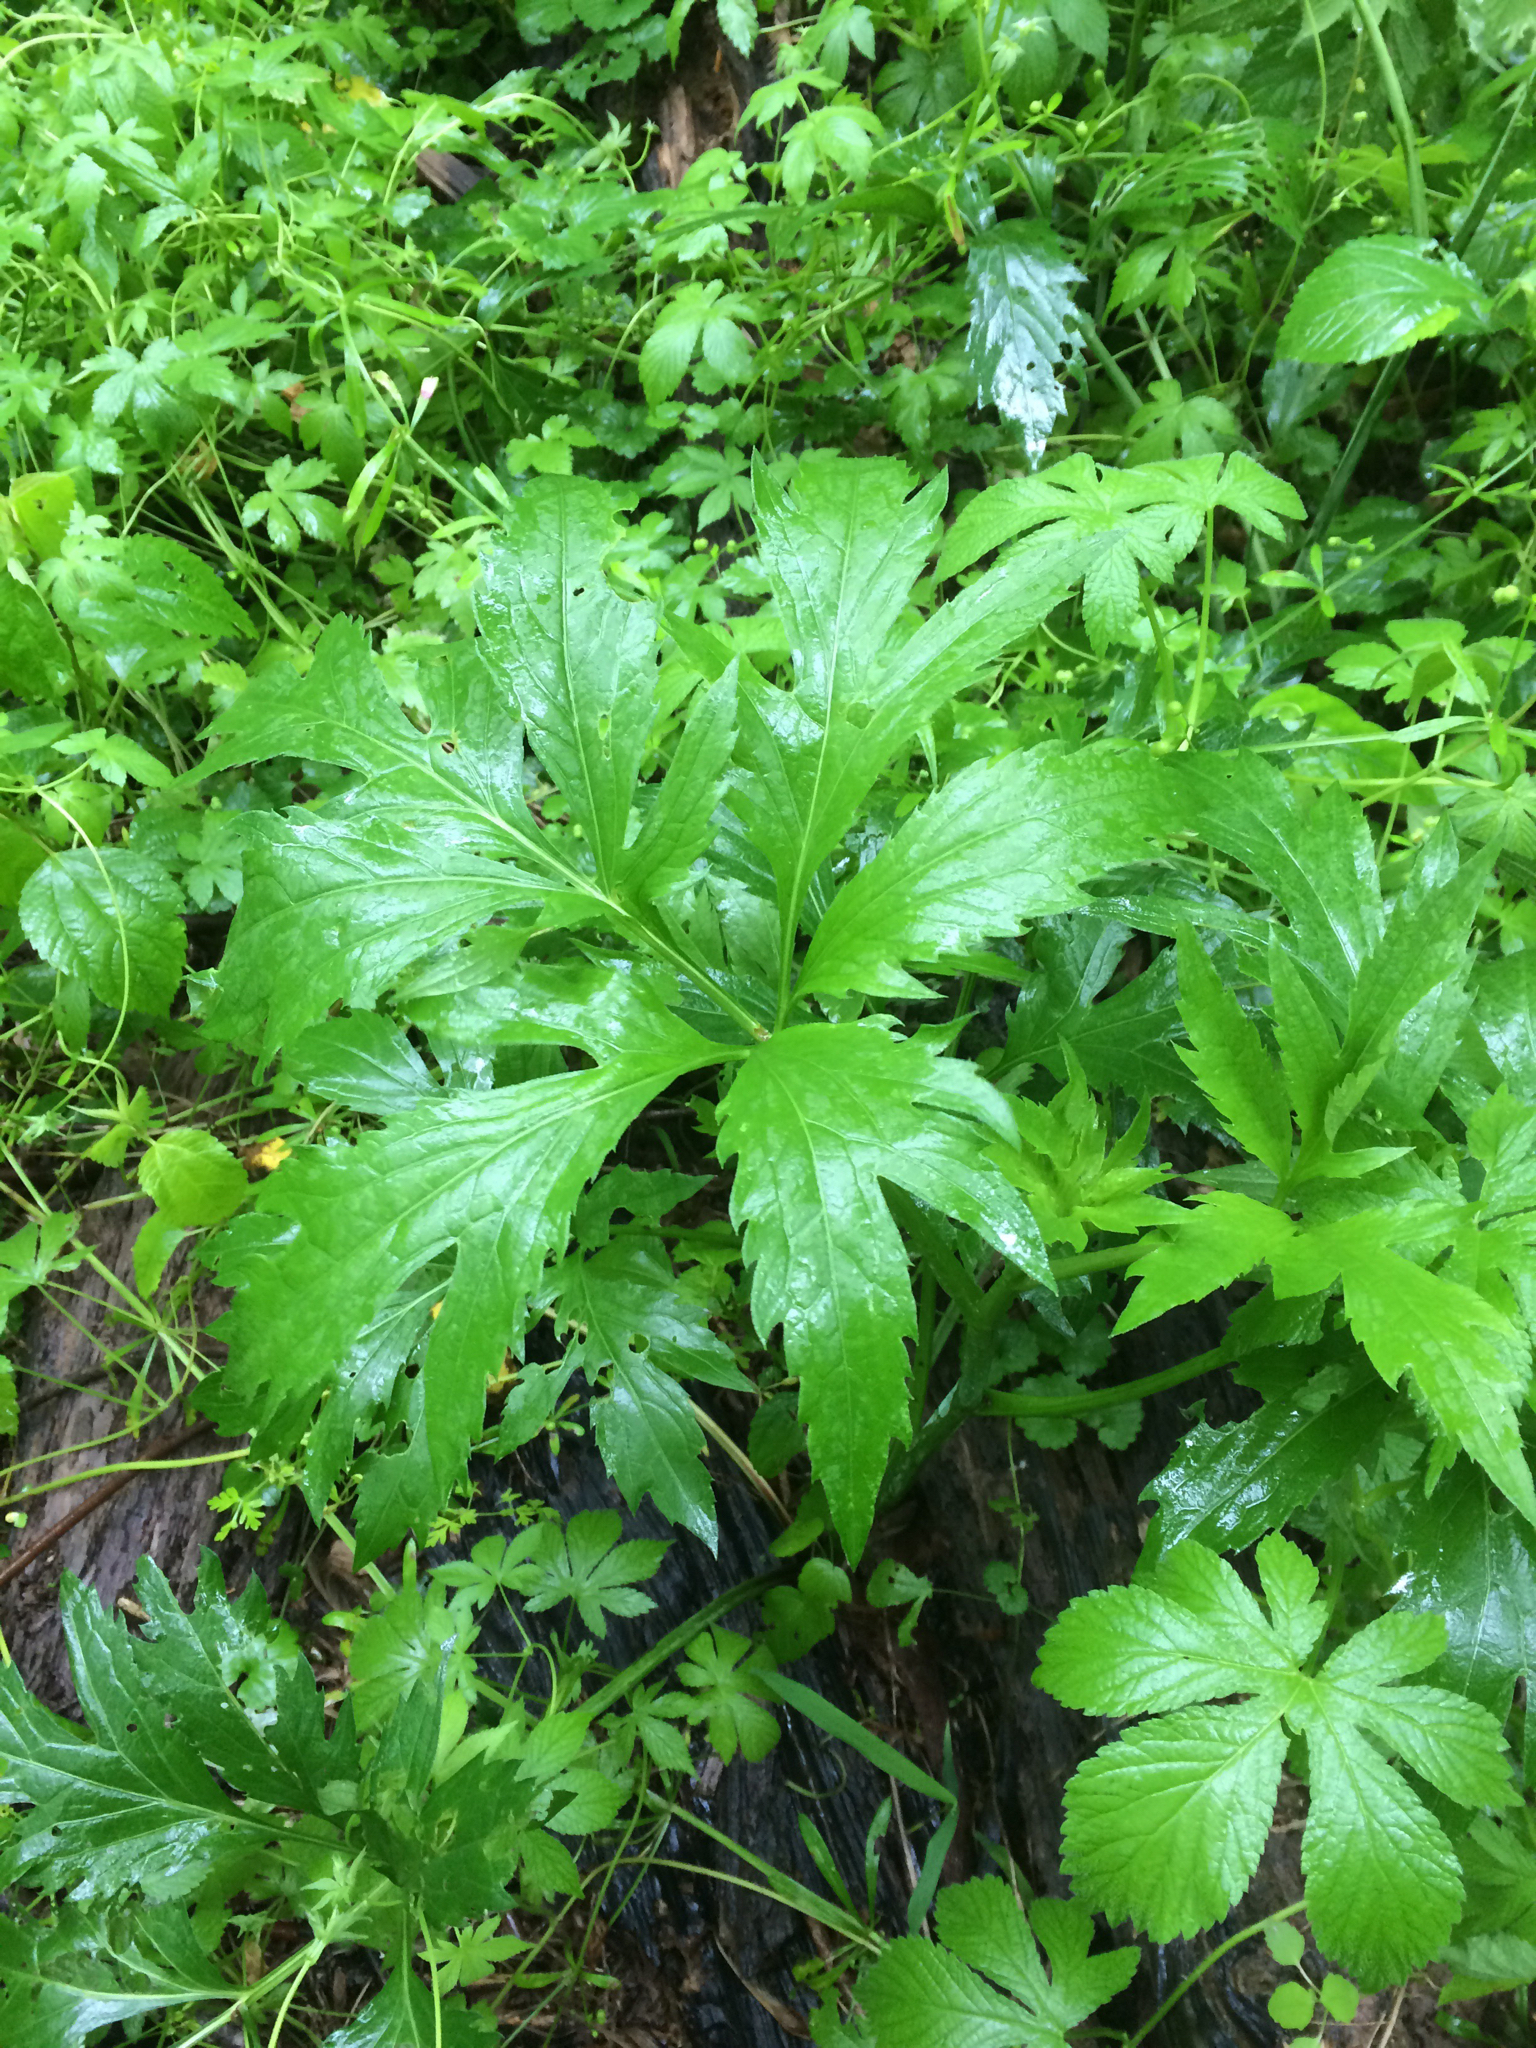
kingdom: Plantae
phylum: Tracheophyta
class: Magnoliopsida
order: Asterales
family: Asteraceae
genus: Rudbeckia
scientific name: Rudbeckia laciniata
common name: Coneflower
